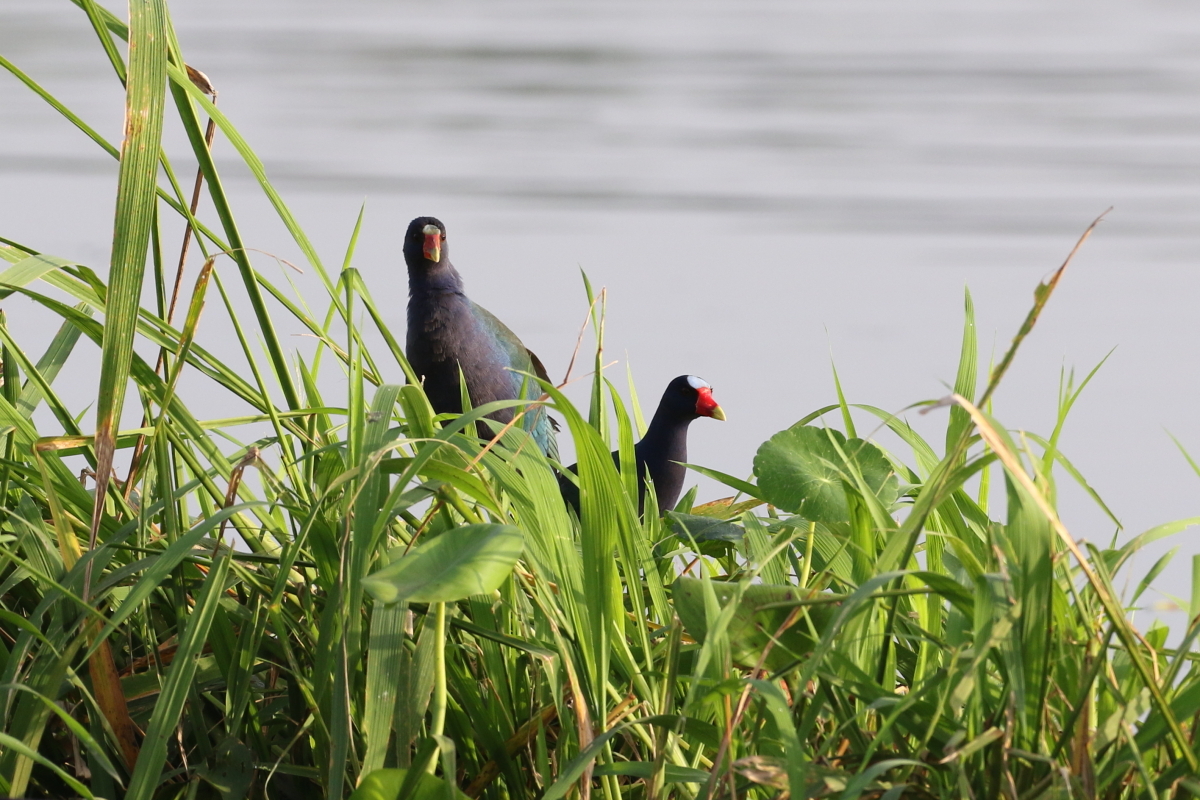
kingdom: Animalia
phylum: Chordata
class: Aves
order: Gruiformes
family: Rallidae
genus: Porphyrio
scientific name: Porphyrio martinica
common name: Purple gallinule
